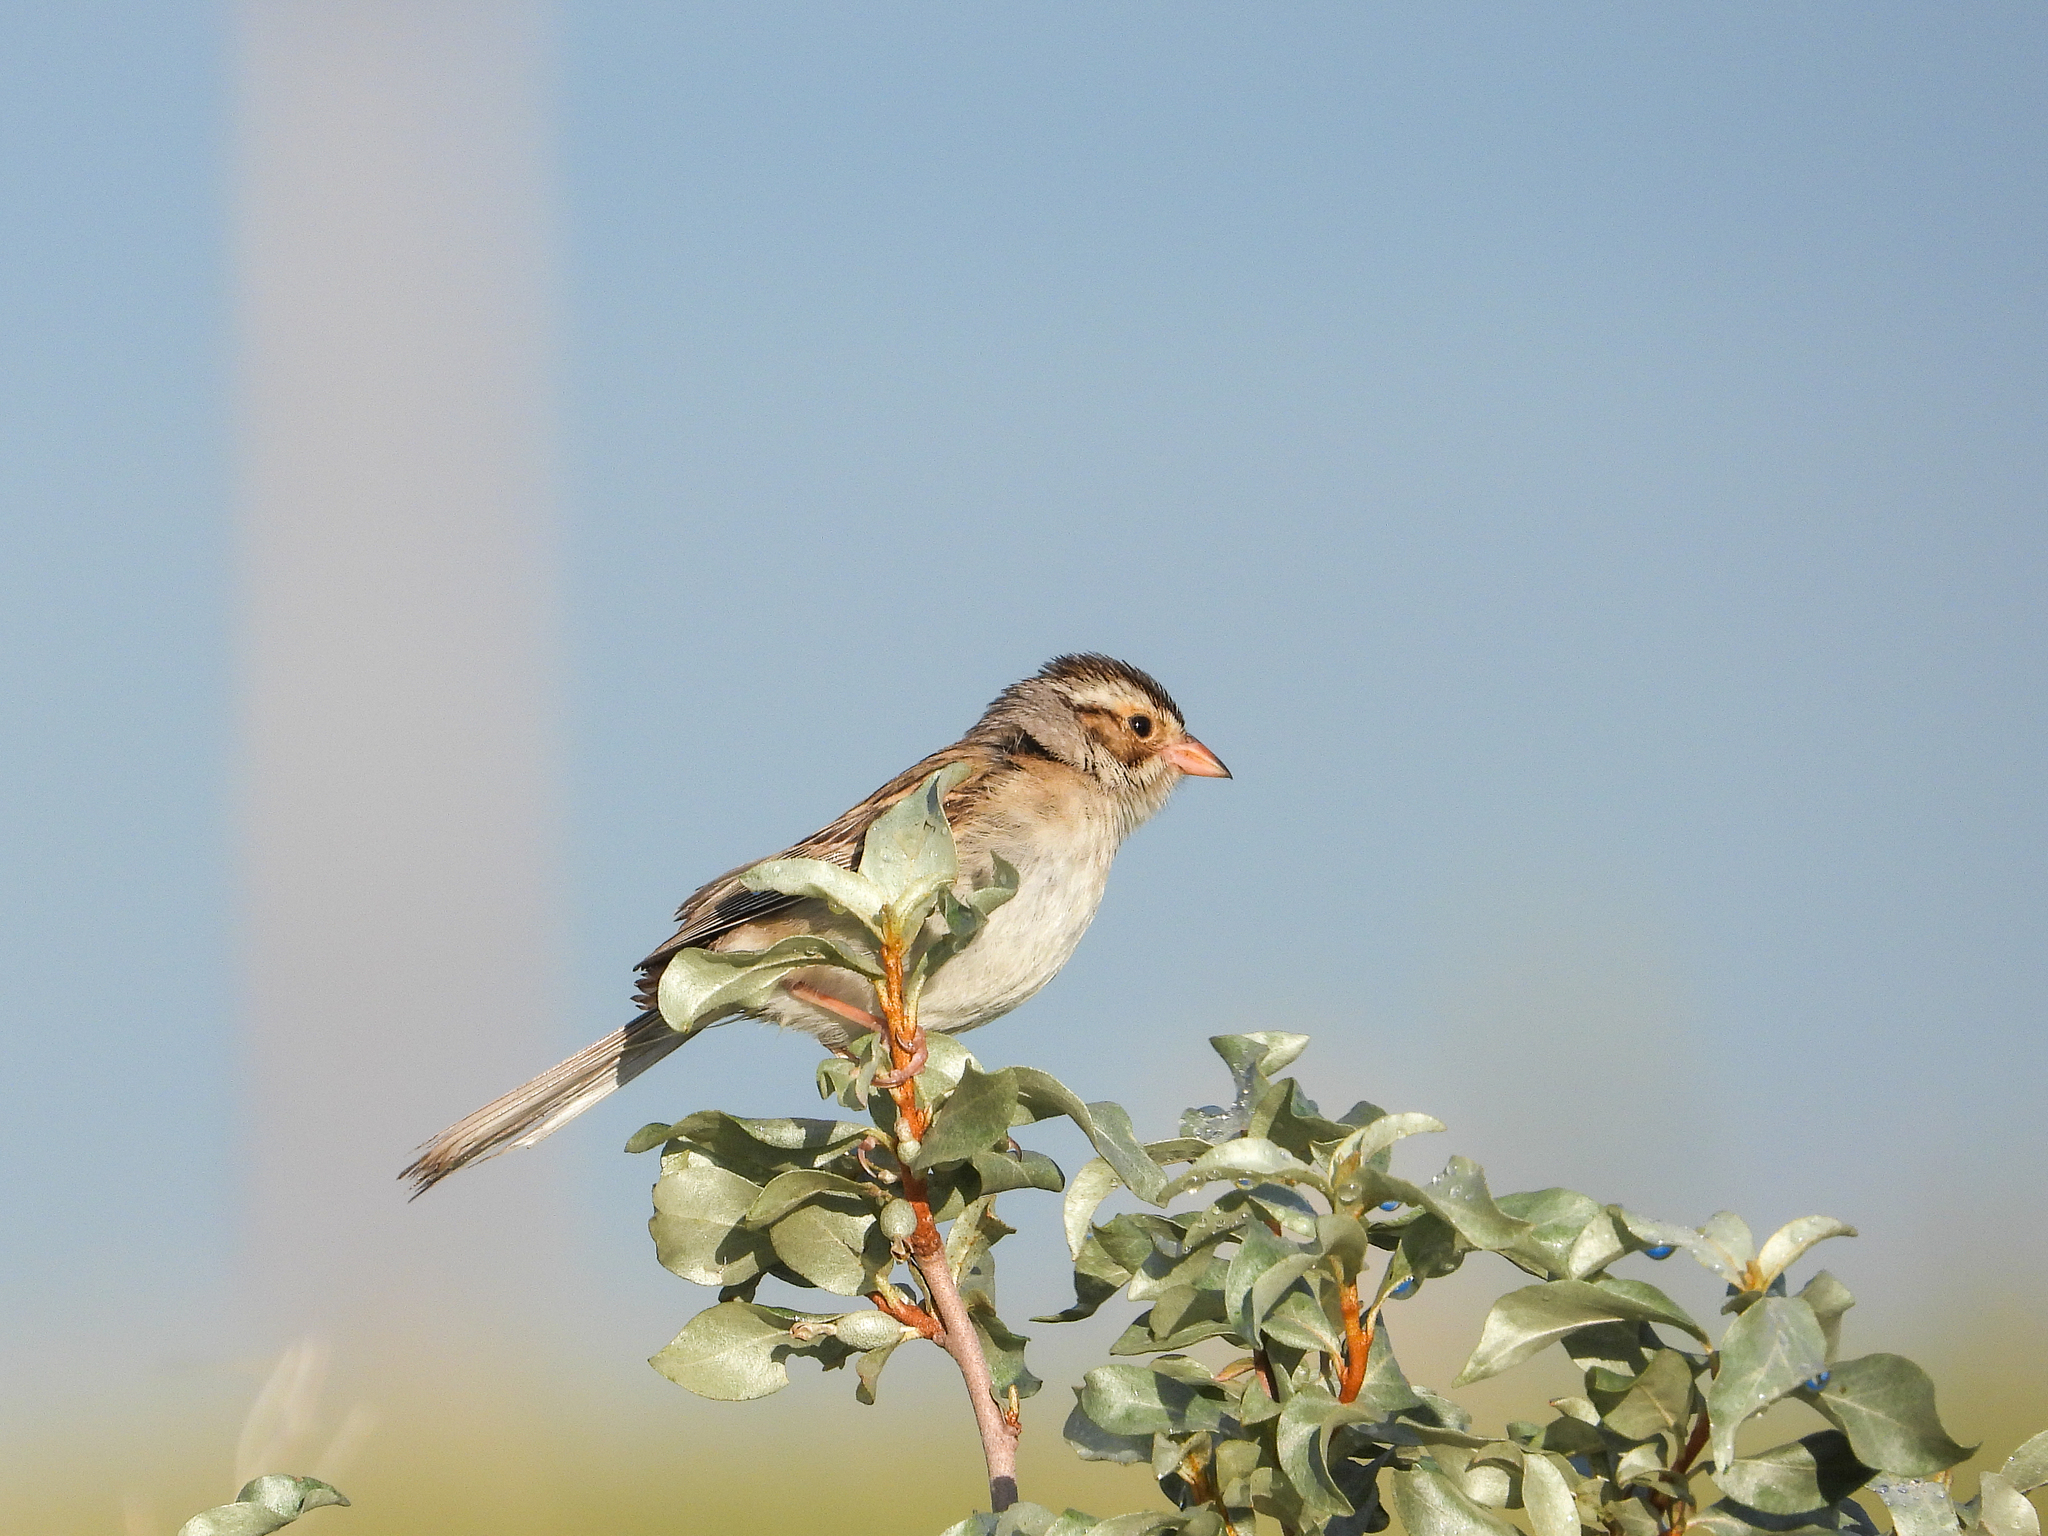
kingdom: Animalia
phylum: Chordata
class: Aves
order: Passeriformes
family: Passerellidae
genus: Spizella
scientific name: Spizella pallida
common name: Clay-colored sparrow
